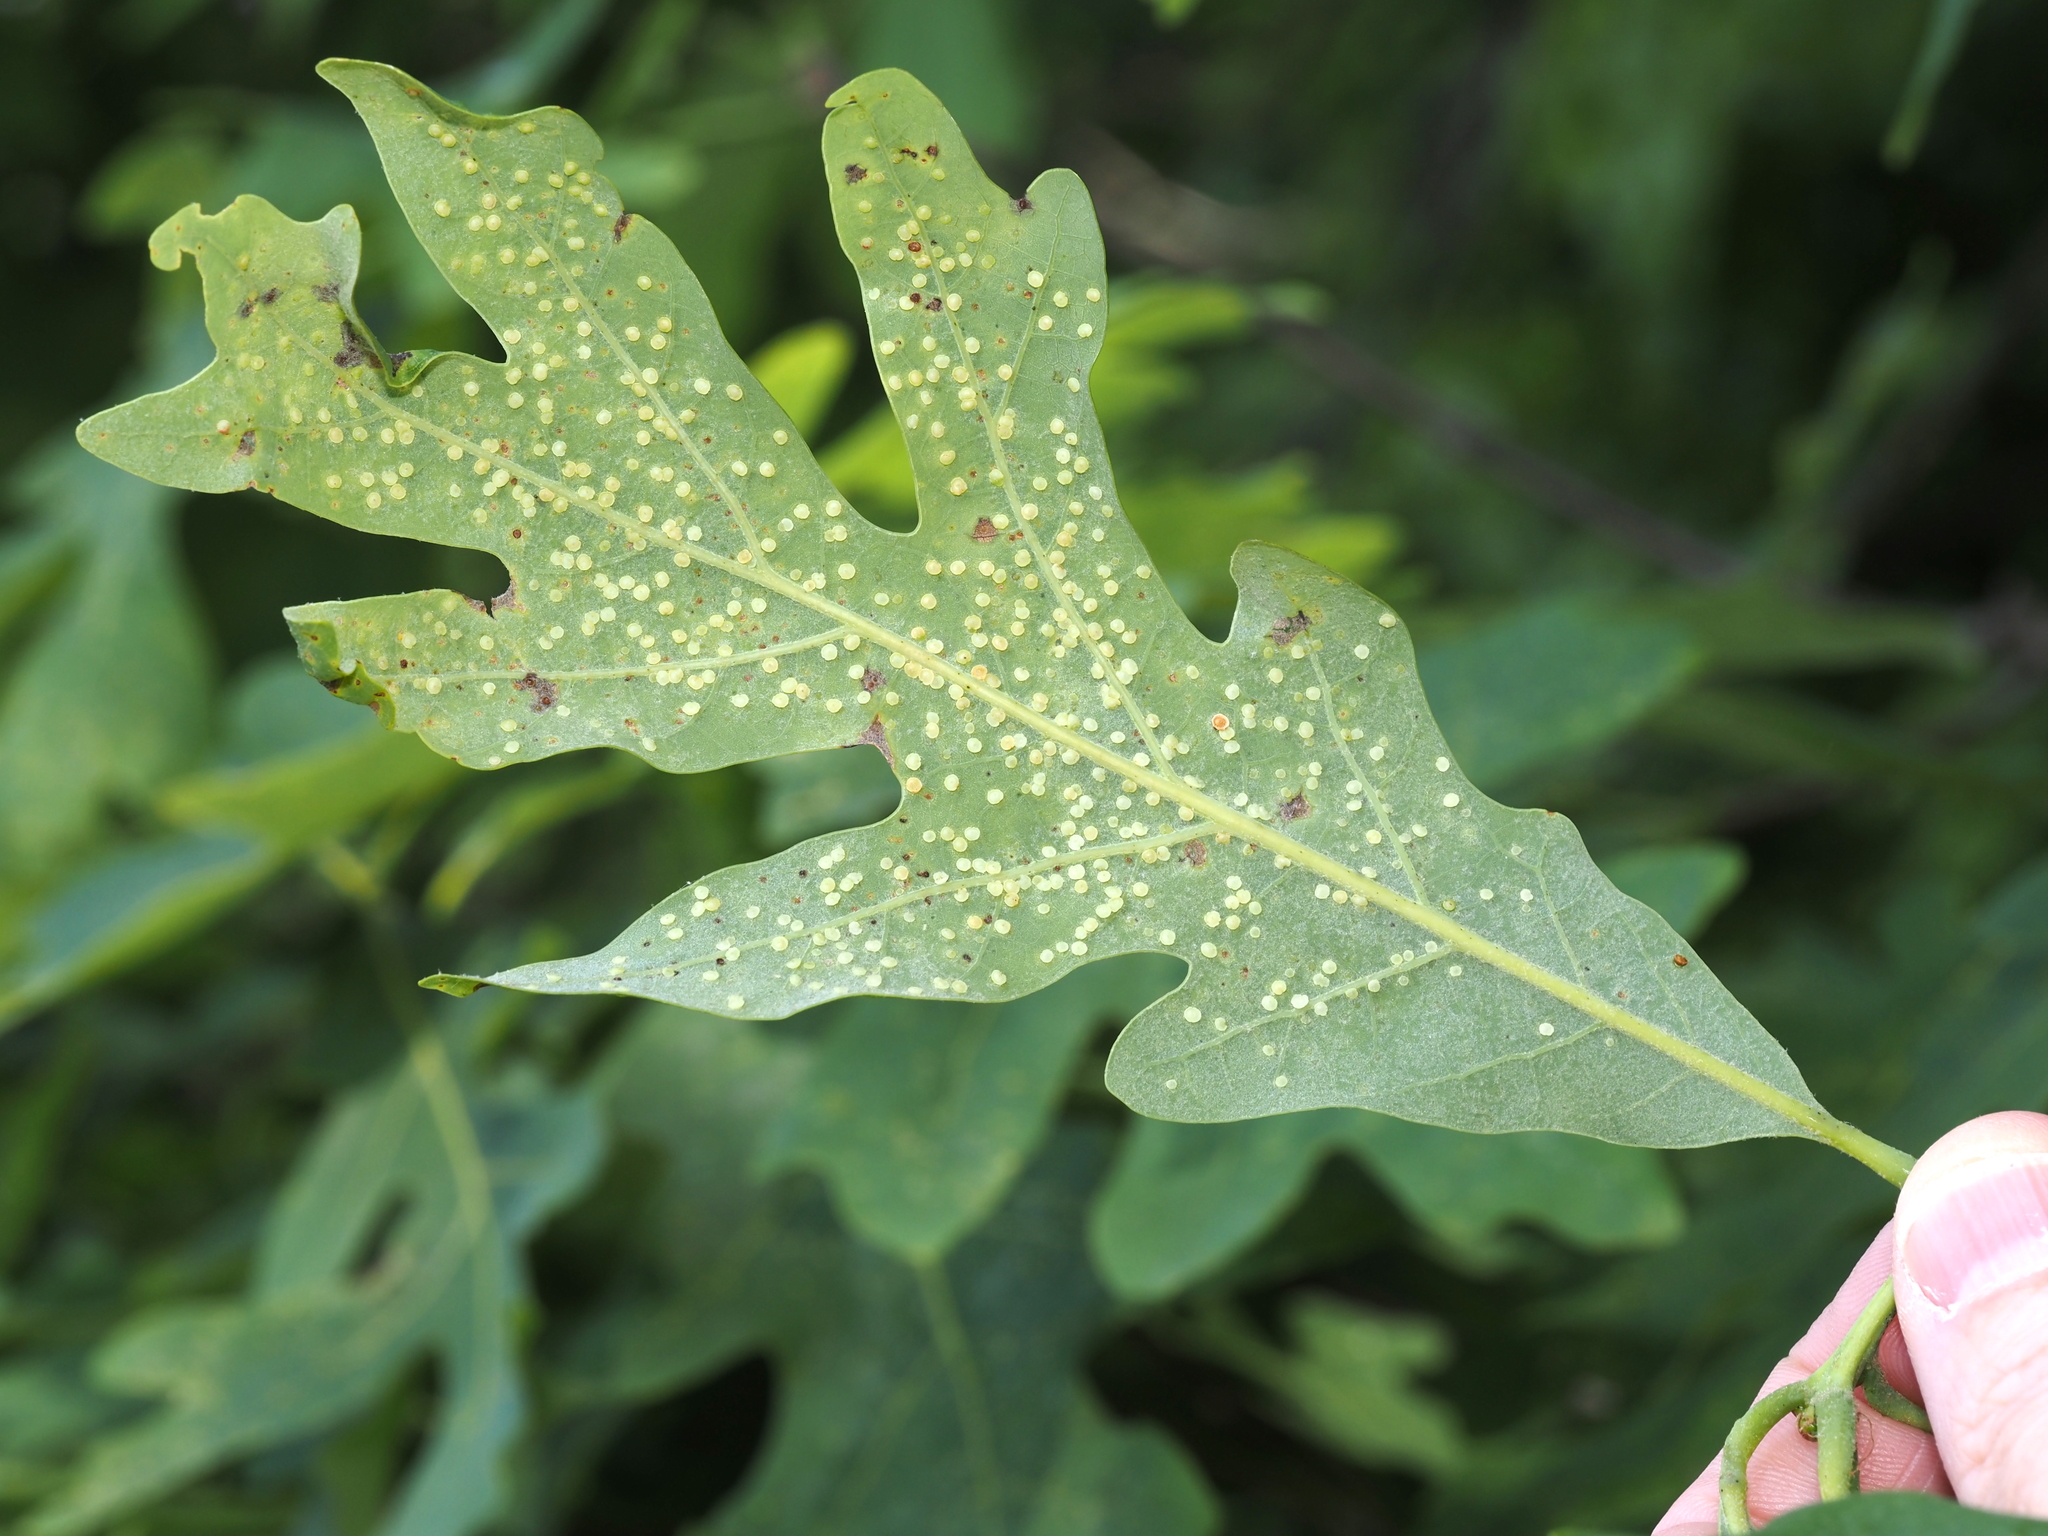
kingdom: Animalia
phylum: Arthropoda
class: Insecta
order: Hymenoptera
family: Cynipidae
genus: Neuroterus
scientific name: Neuroterus
